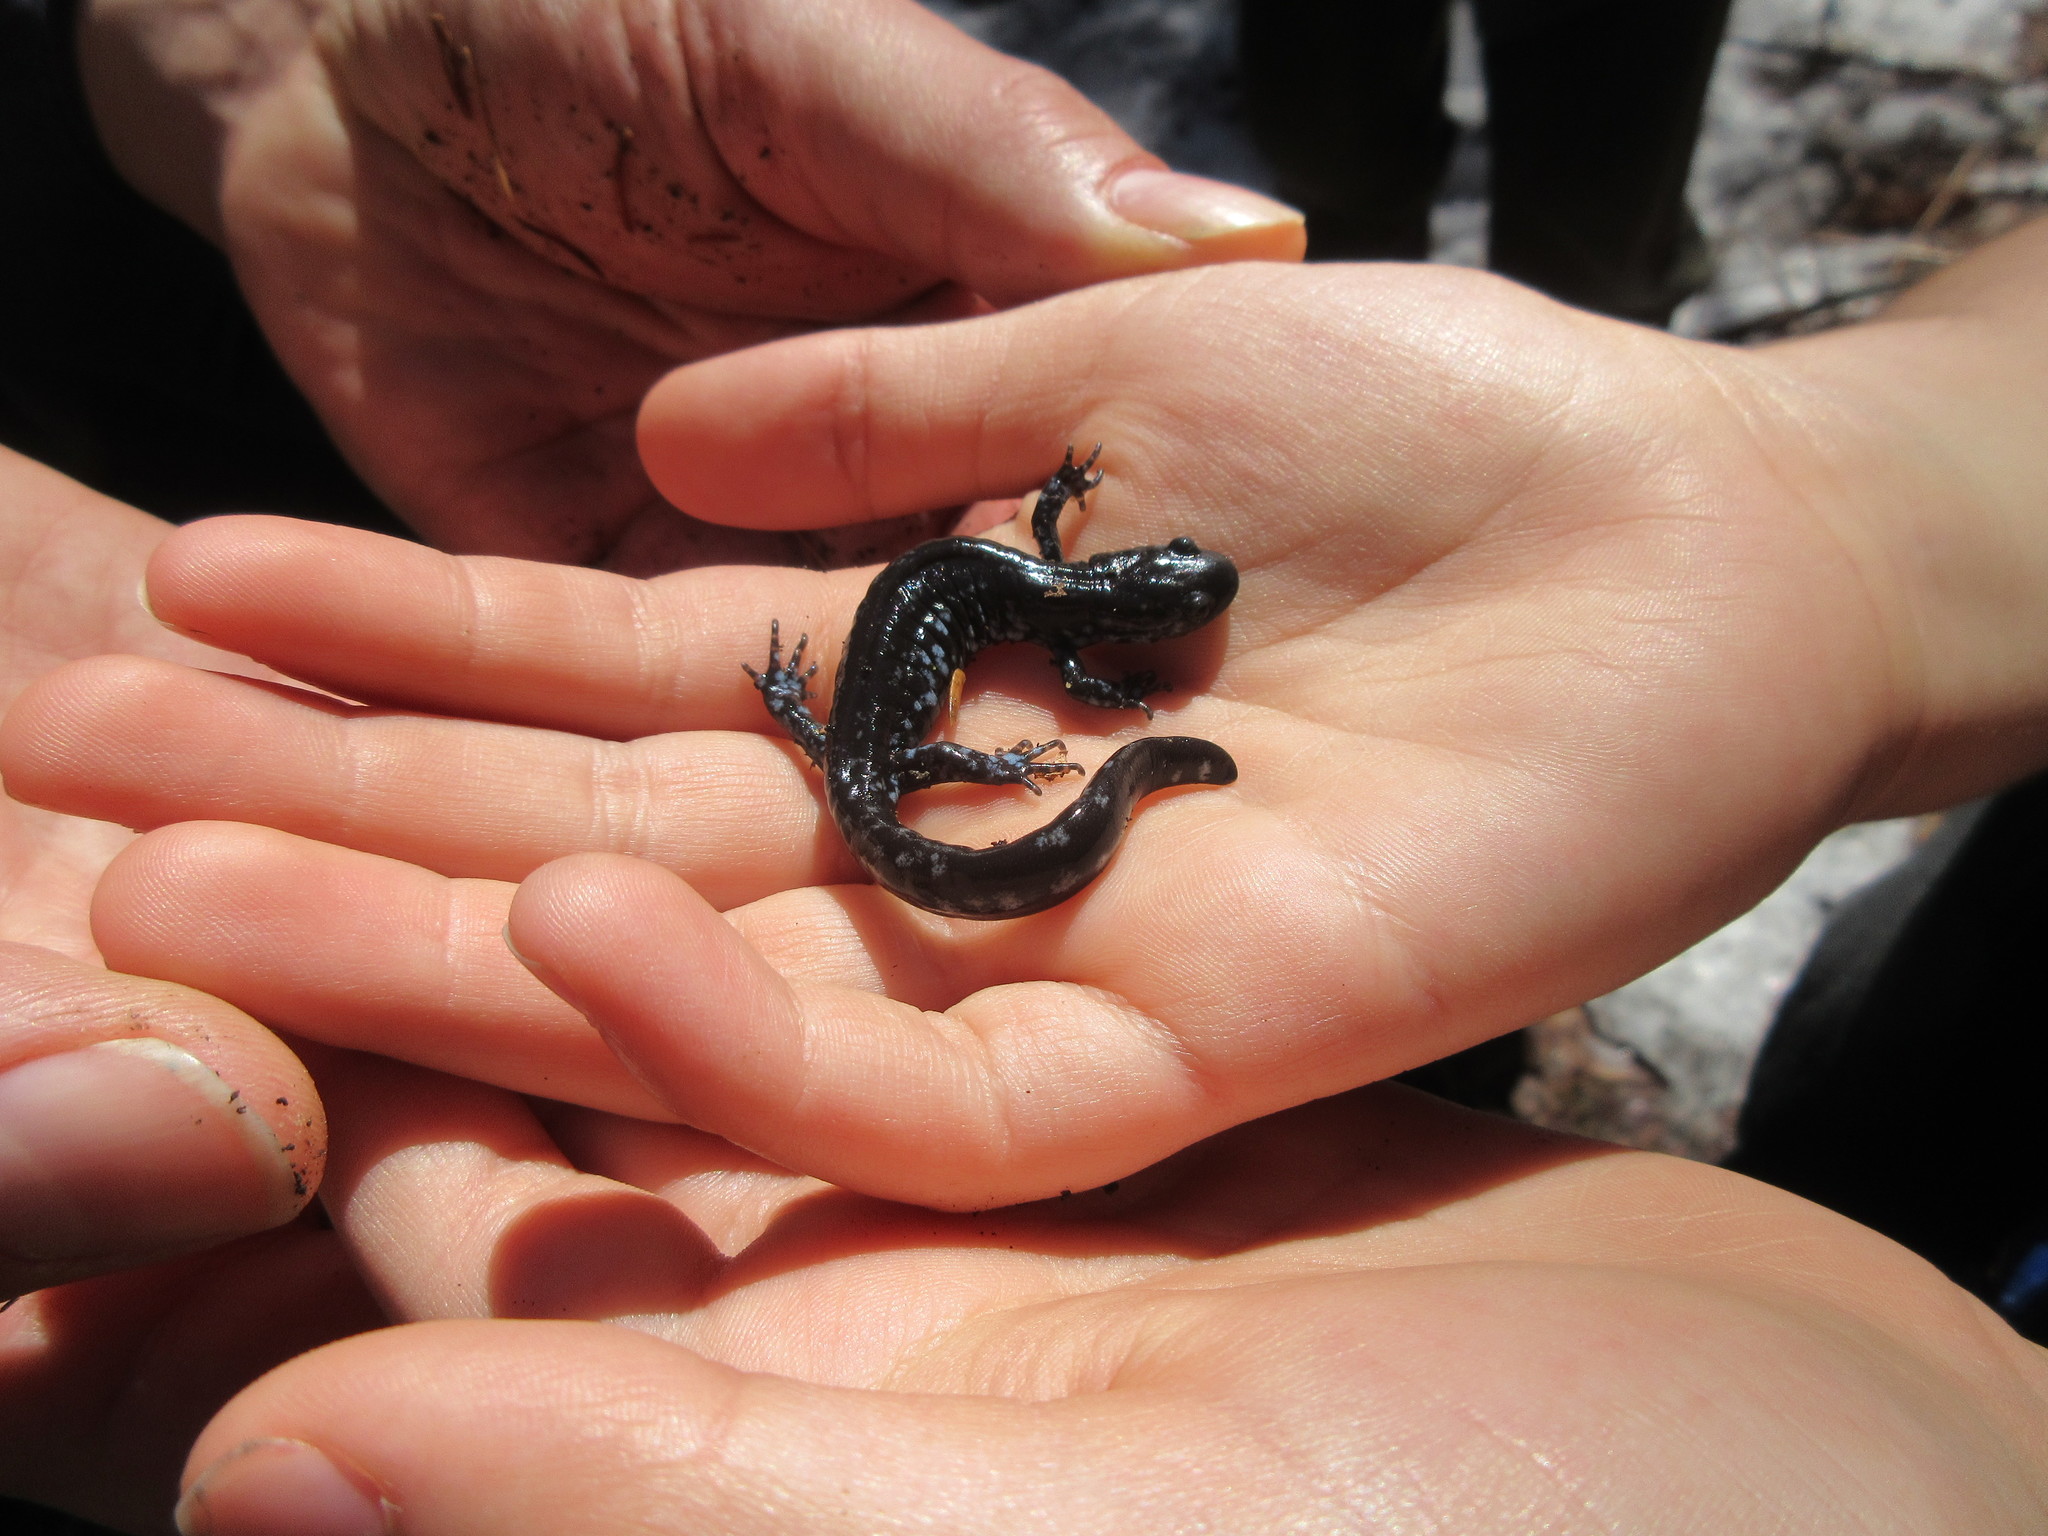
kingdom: Animalia
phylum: Chordata
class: Amphibia
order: Caudata
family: Ambystomatidae
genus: Ambystoma
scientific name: Ambystoma laterale
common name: Blue-spotted salamander
